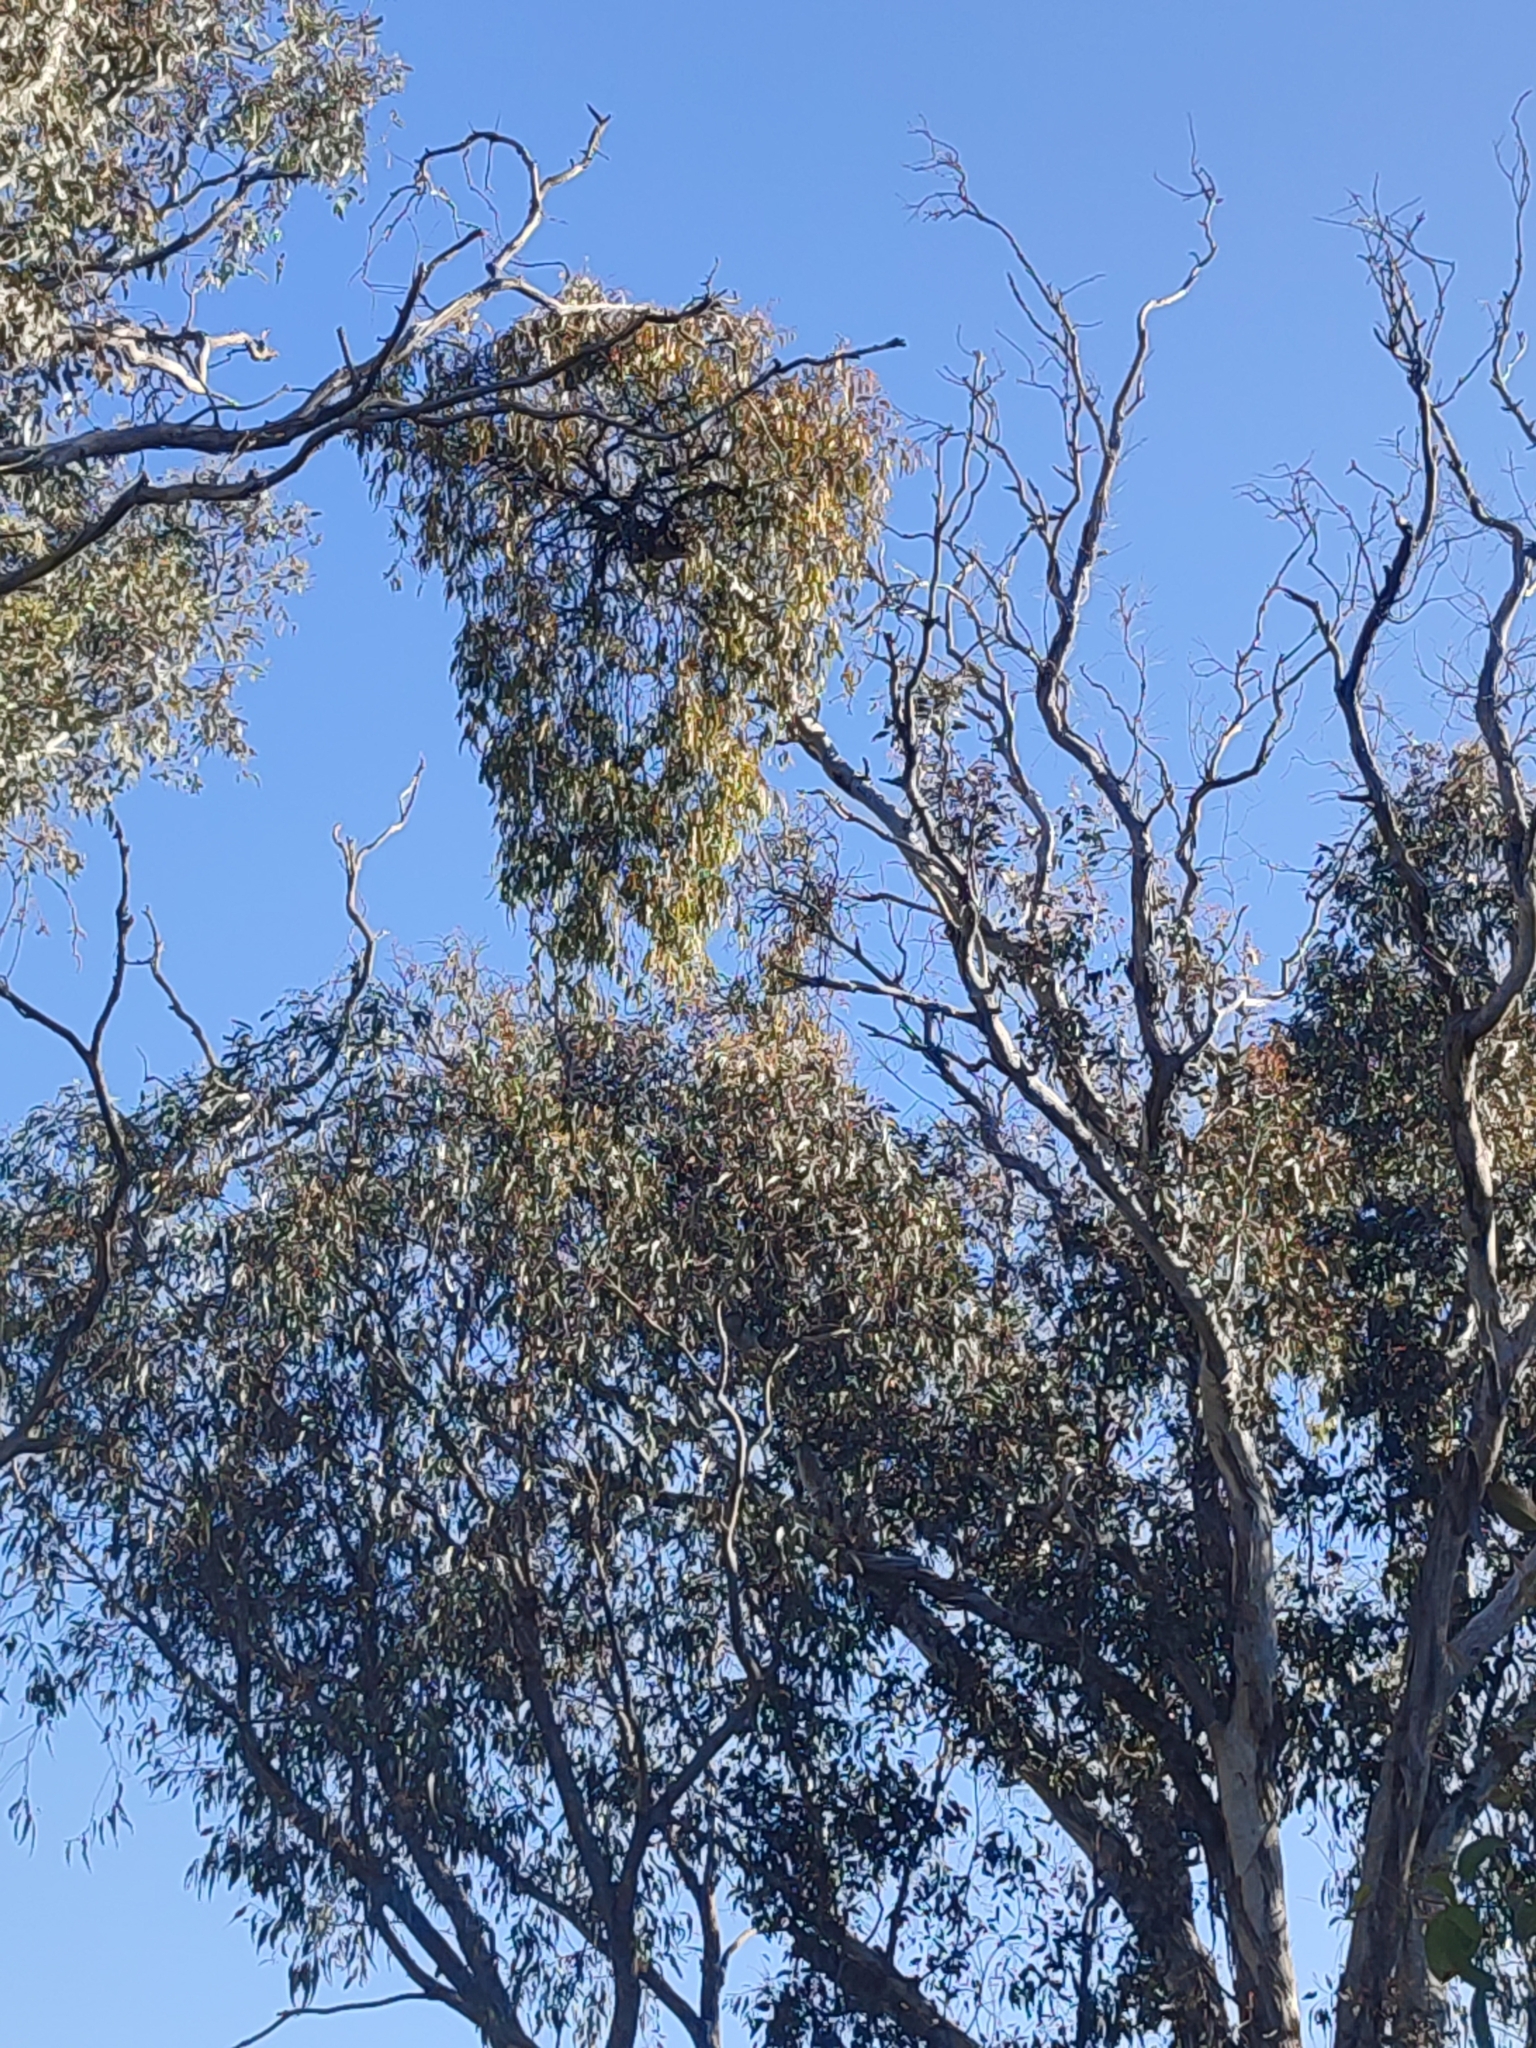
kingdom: Plantae
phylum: Tracheophyta
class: Magnoliopsida
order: Santalales
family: Loranthaceae
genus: Amyema
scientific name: Amyema
